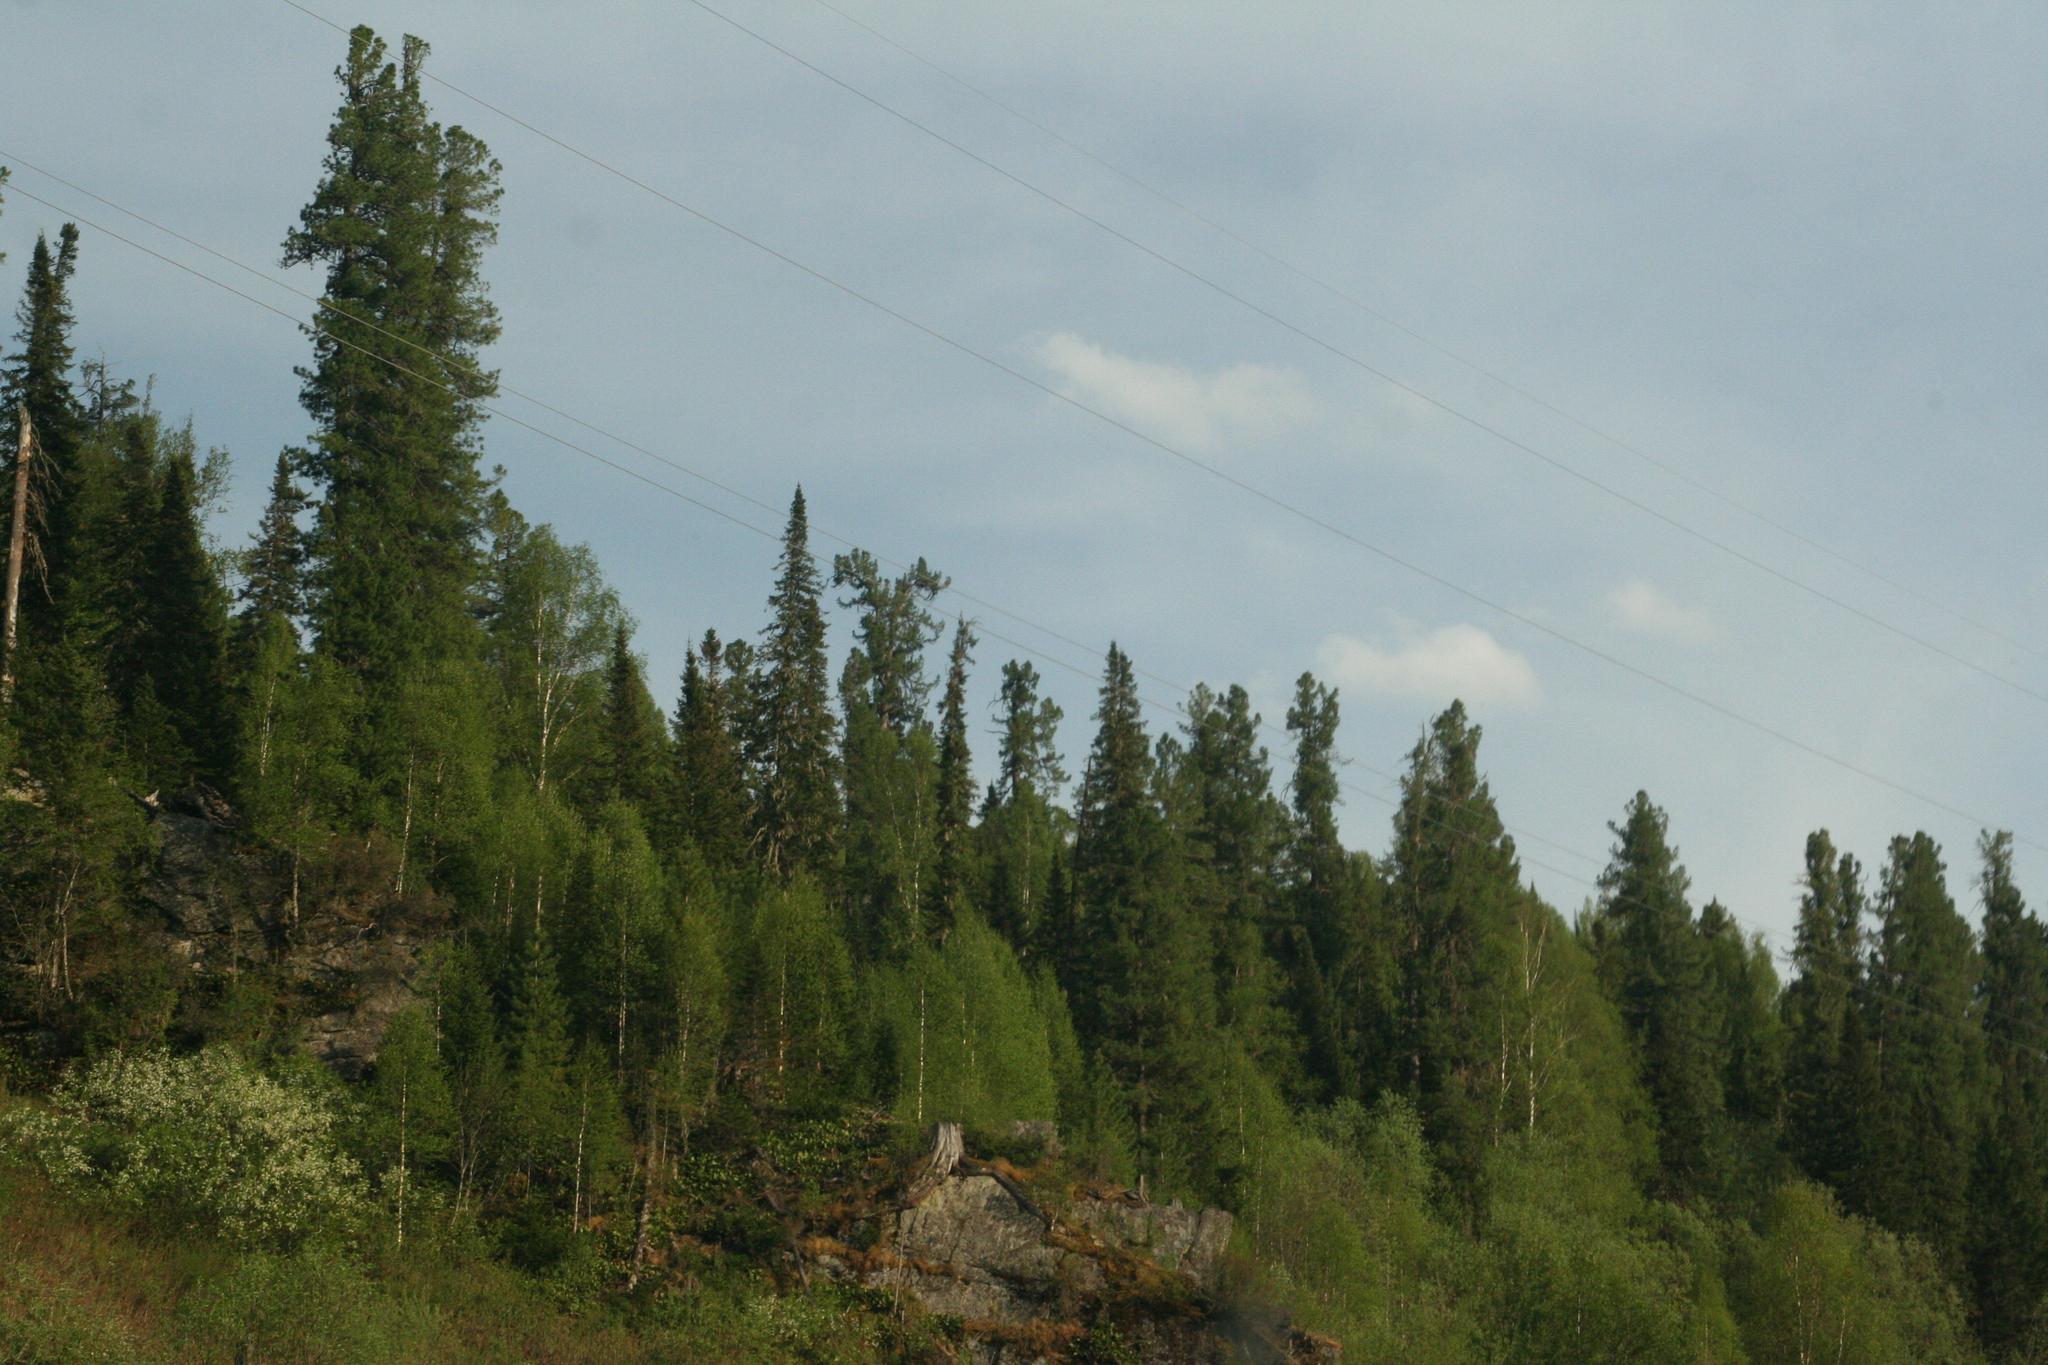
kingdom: Plantae
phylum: Tracheophyta
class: Pinopsida
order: Pinales
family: Pinaceae
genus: Abies
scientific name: Abies sibirica
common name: Siberian fir
